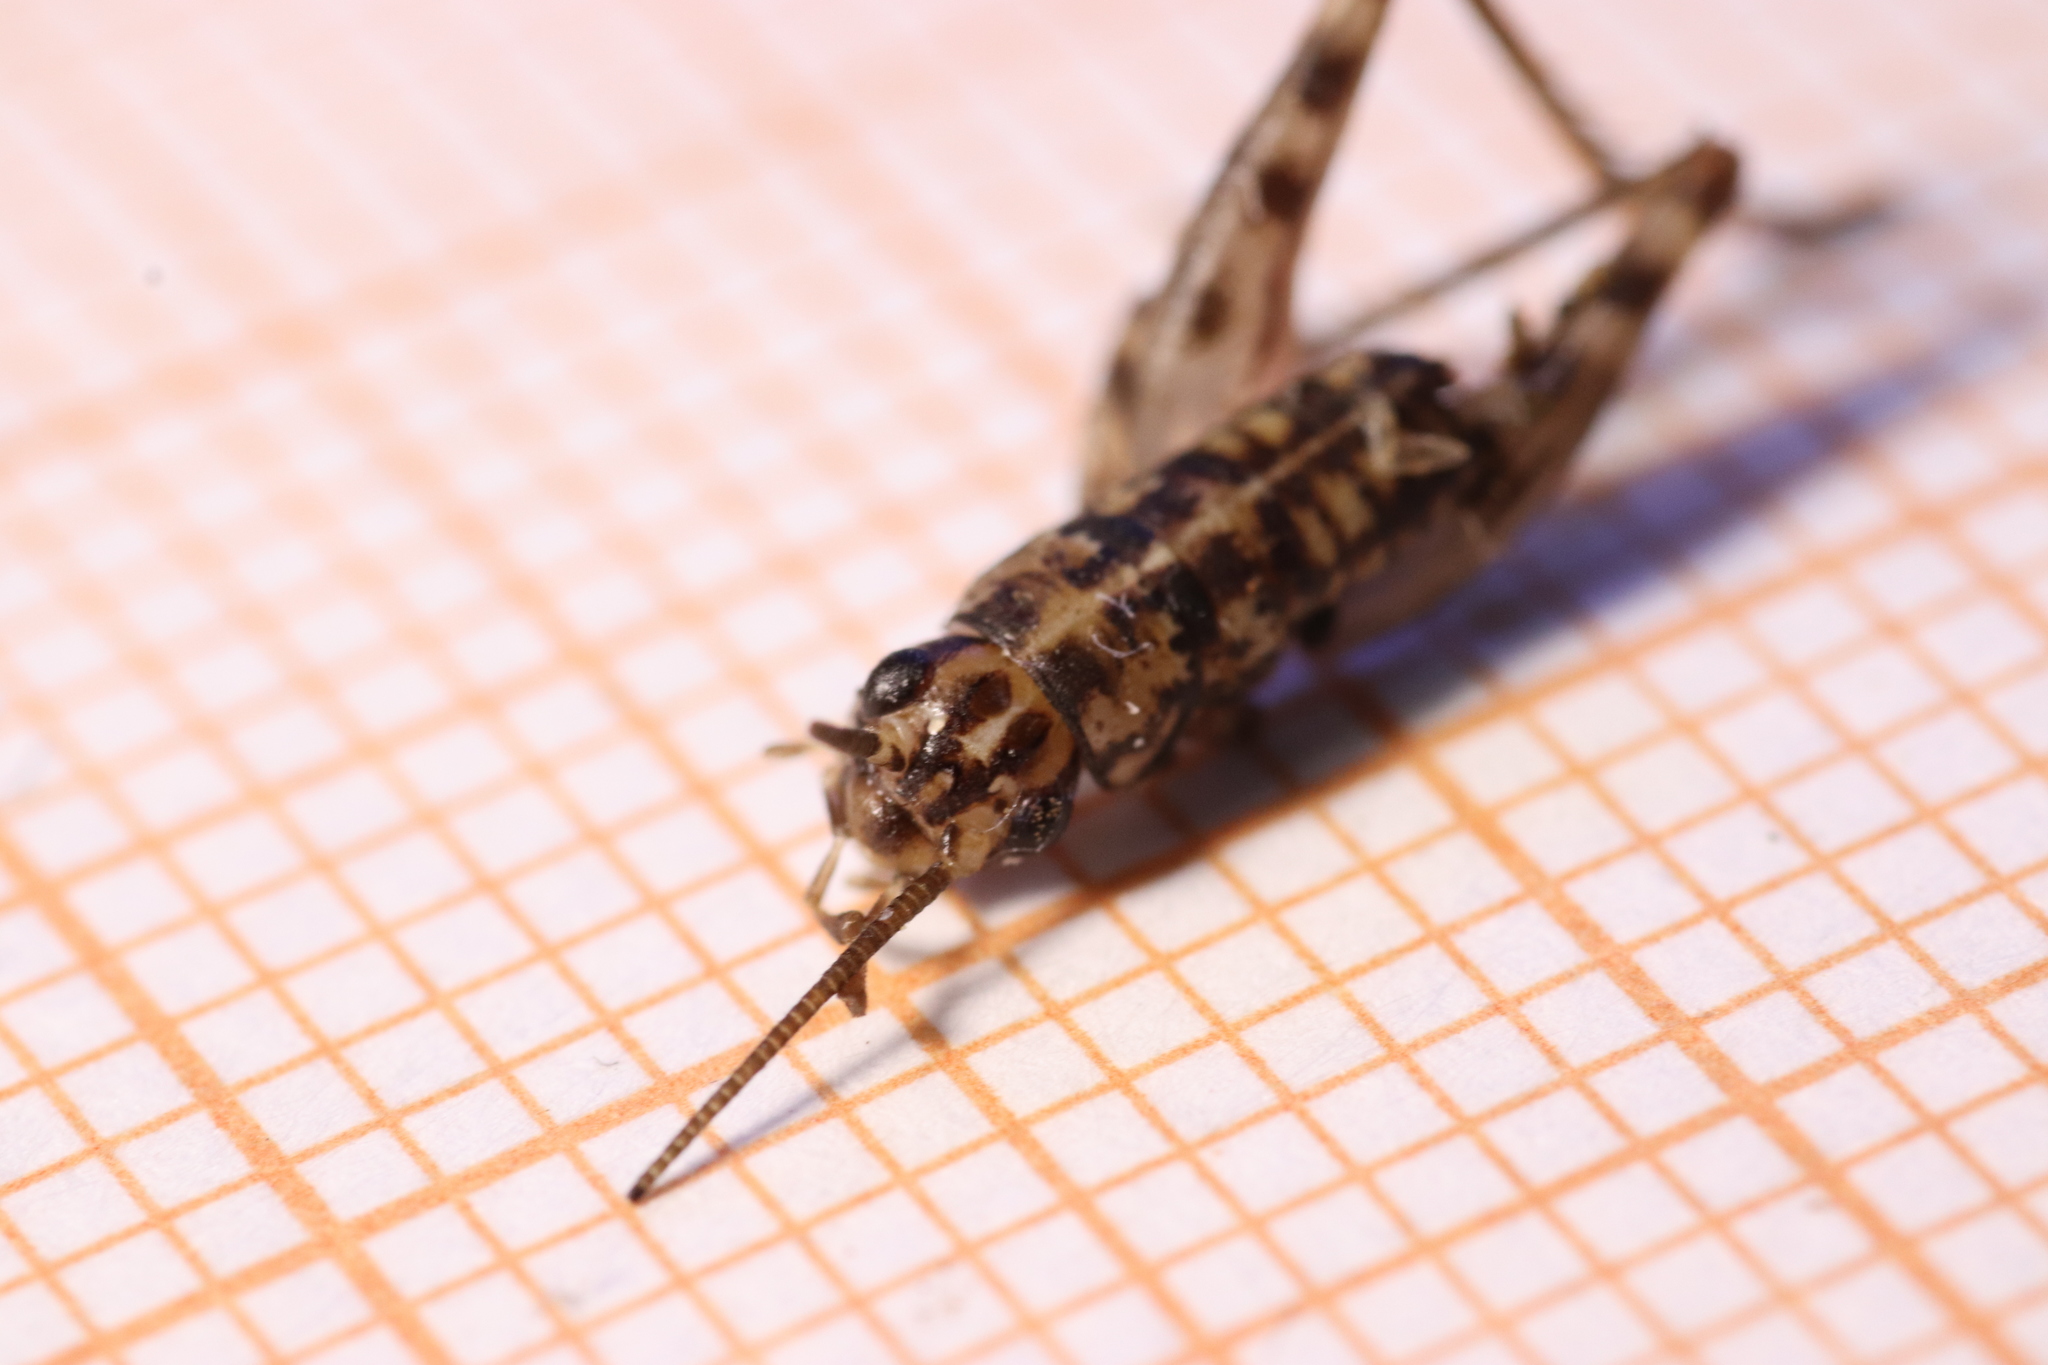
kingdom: Animalia
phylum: Arthropoda
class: Insecta
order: Orthoptera
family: Gryllidae
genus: Gryllomorpha
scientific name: Gryllomorpha dalmatina
